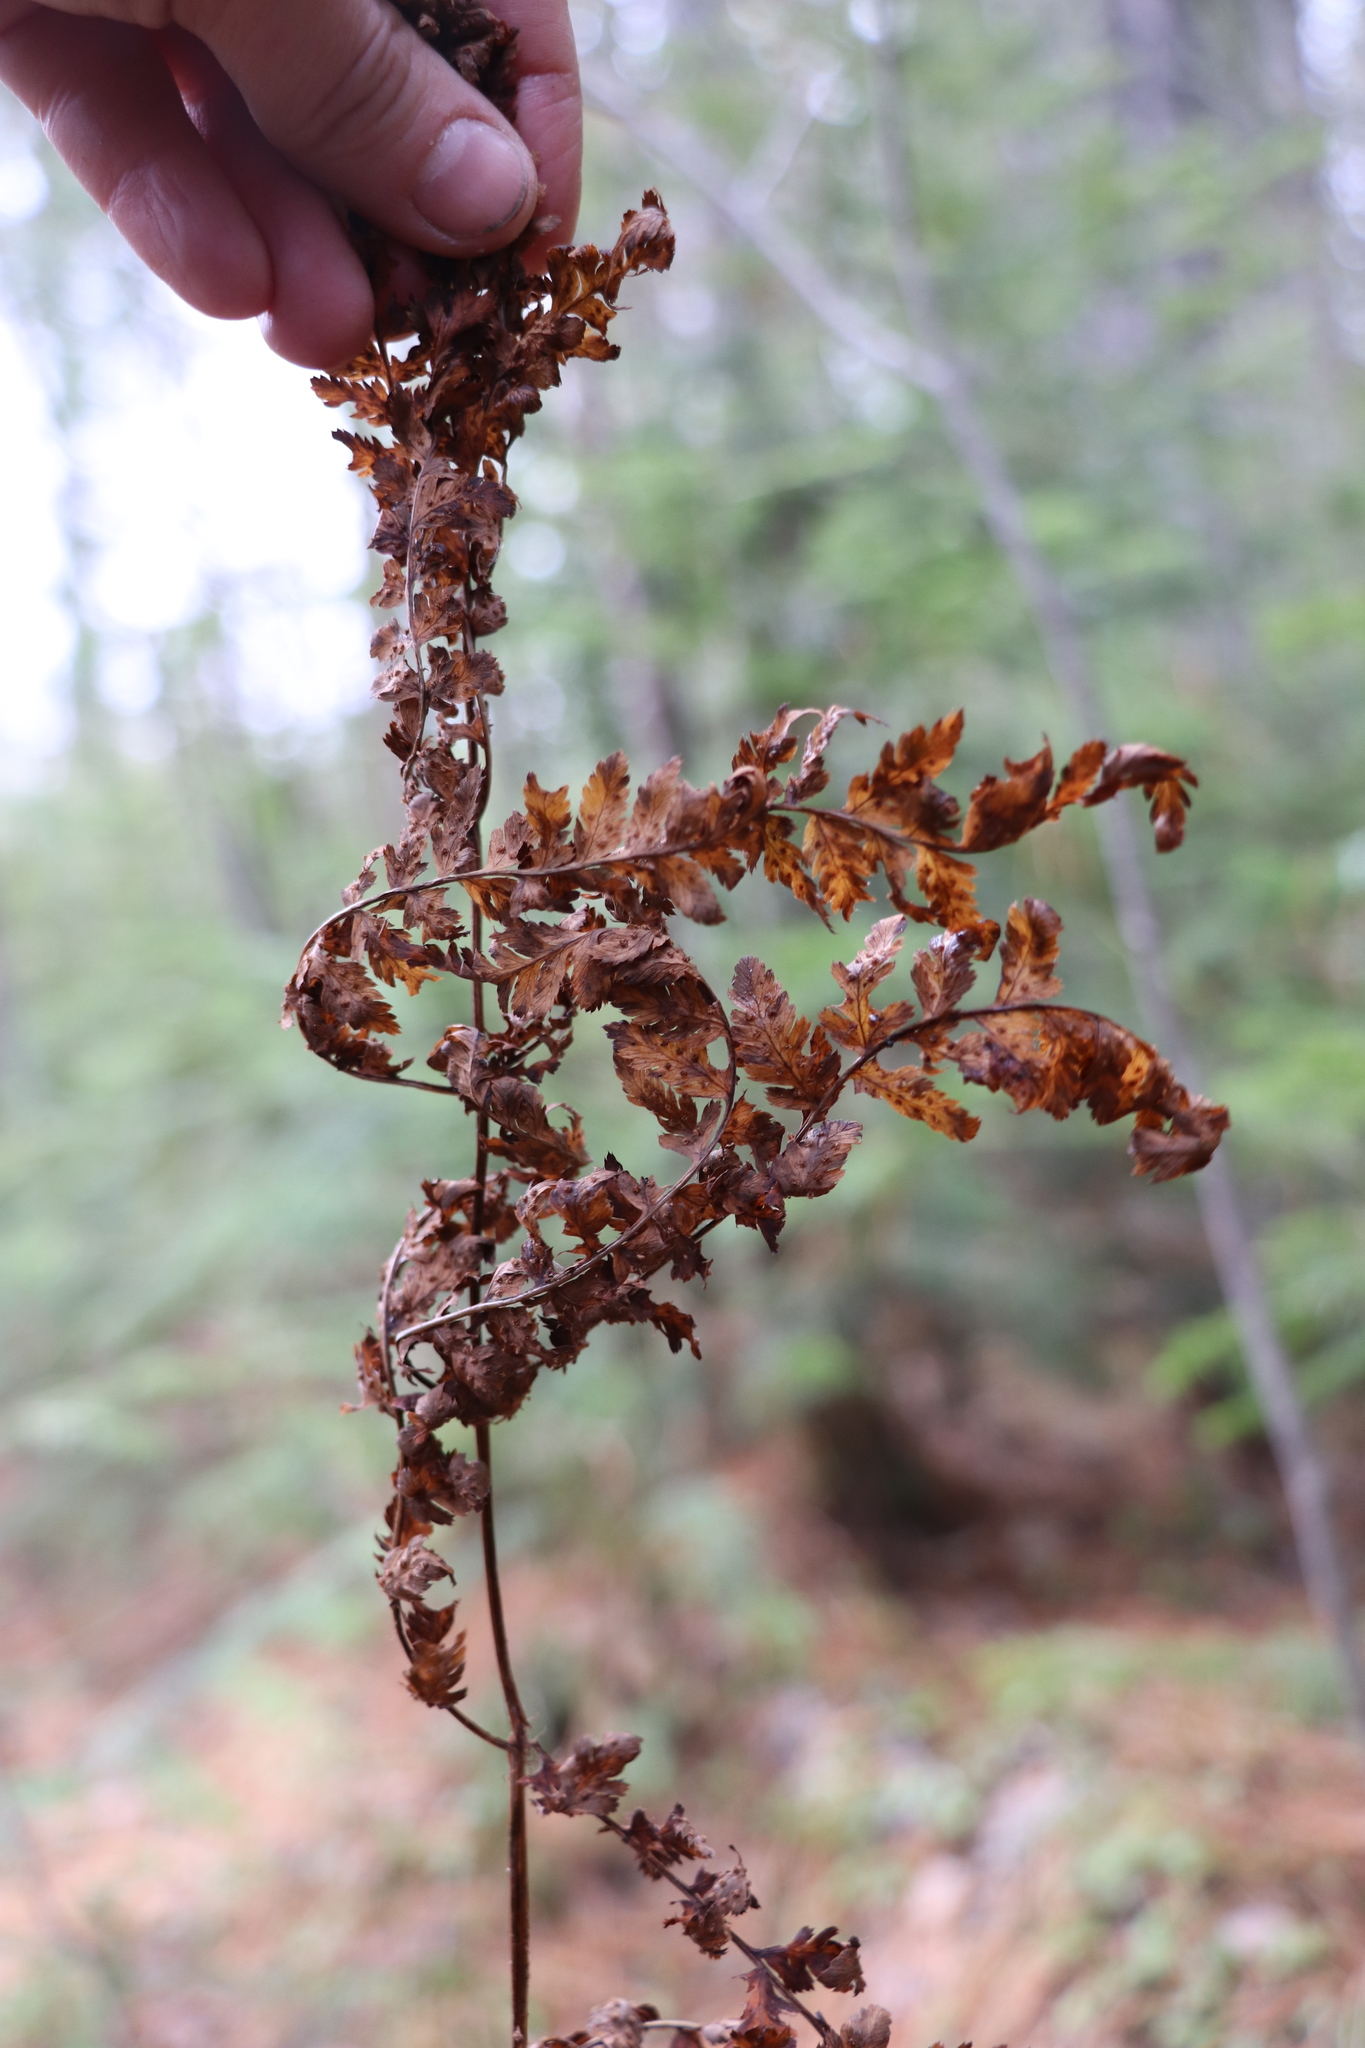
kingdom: Plantae
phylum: Tracheophyta
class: Polypodiopsida
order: Polypodiales
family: Athyriaceae
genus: Athyrium
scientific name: Athyrium filix-femina
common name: Lady fern
